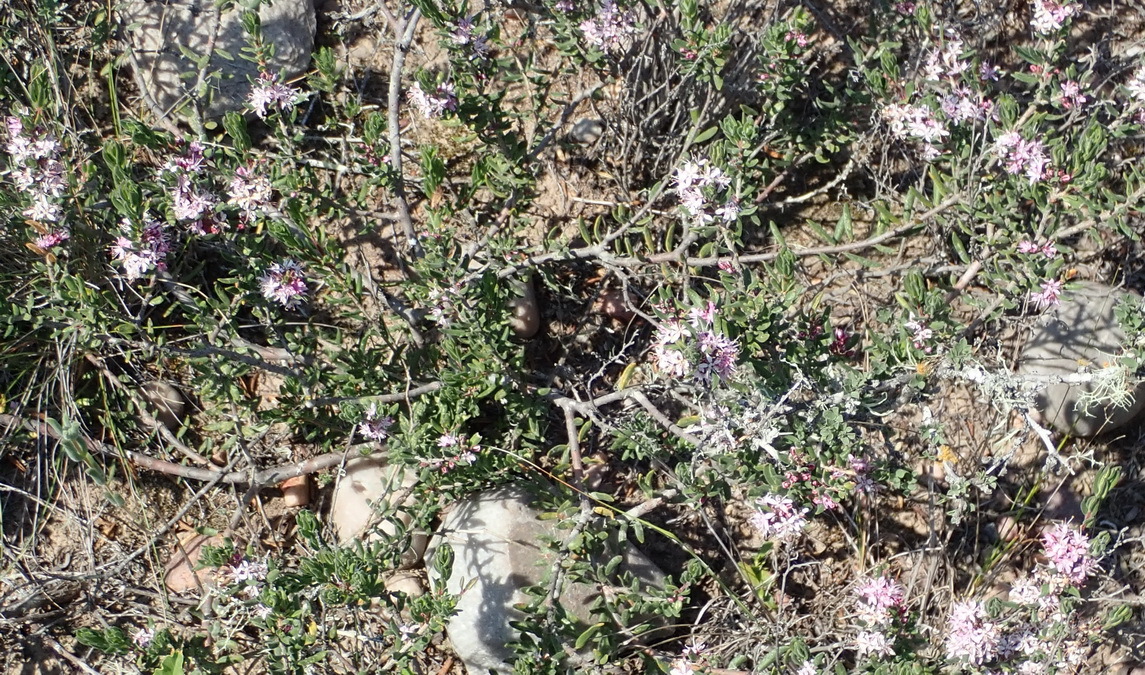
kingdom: Plantae
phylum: Tracheophyta
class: Magnoliopsida
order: Sapindales
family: Rutaceae
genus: Agathosma
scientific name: Agathosma ovata
